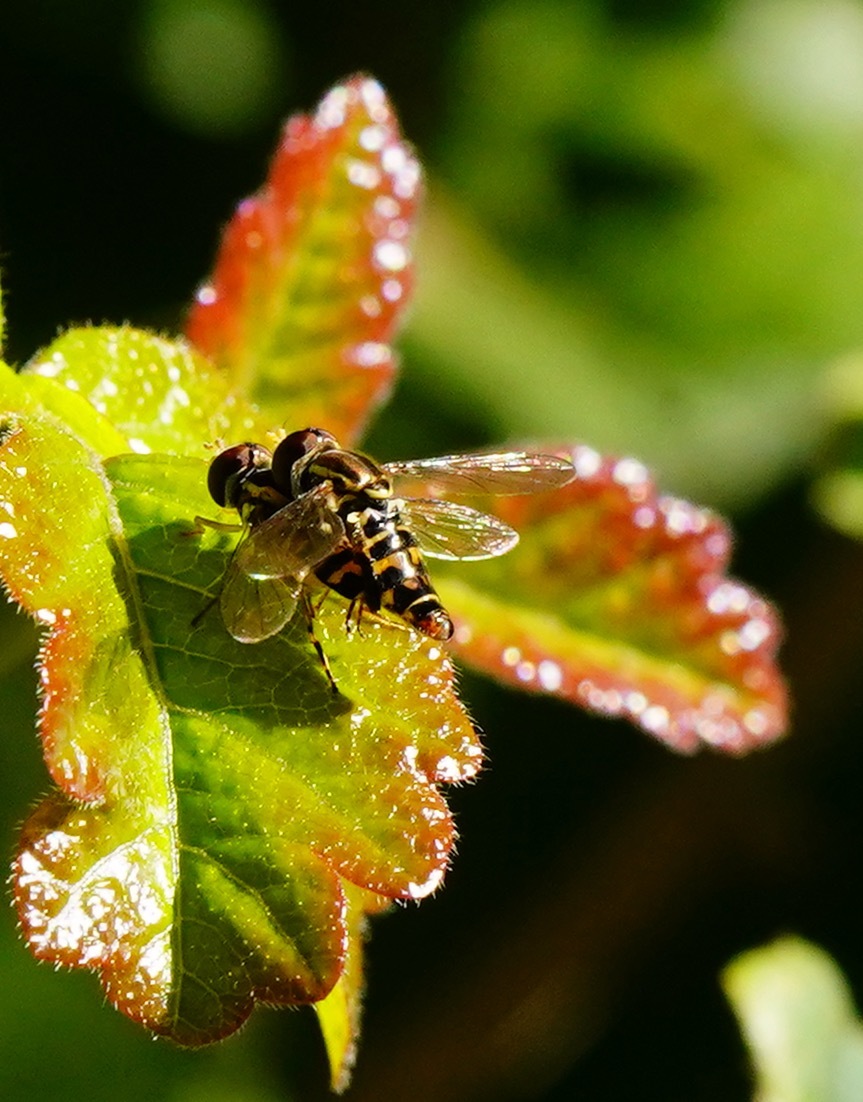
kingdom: Animalia
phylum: Arthropoda
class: Insecta
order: Diptera
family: Syrphidae
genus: Toxomerus
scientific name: Toxomerus occidentalis
